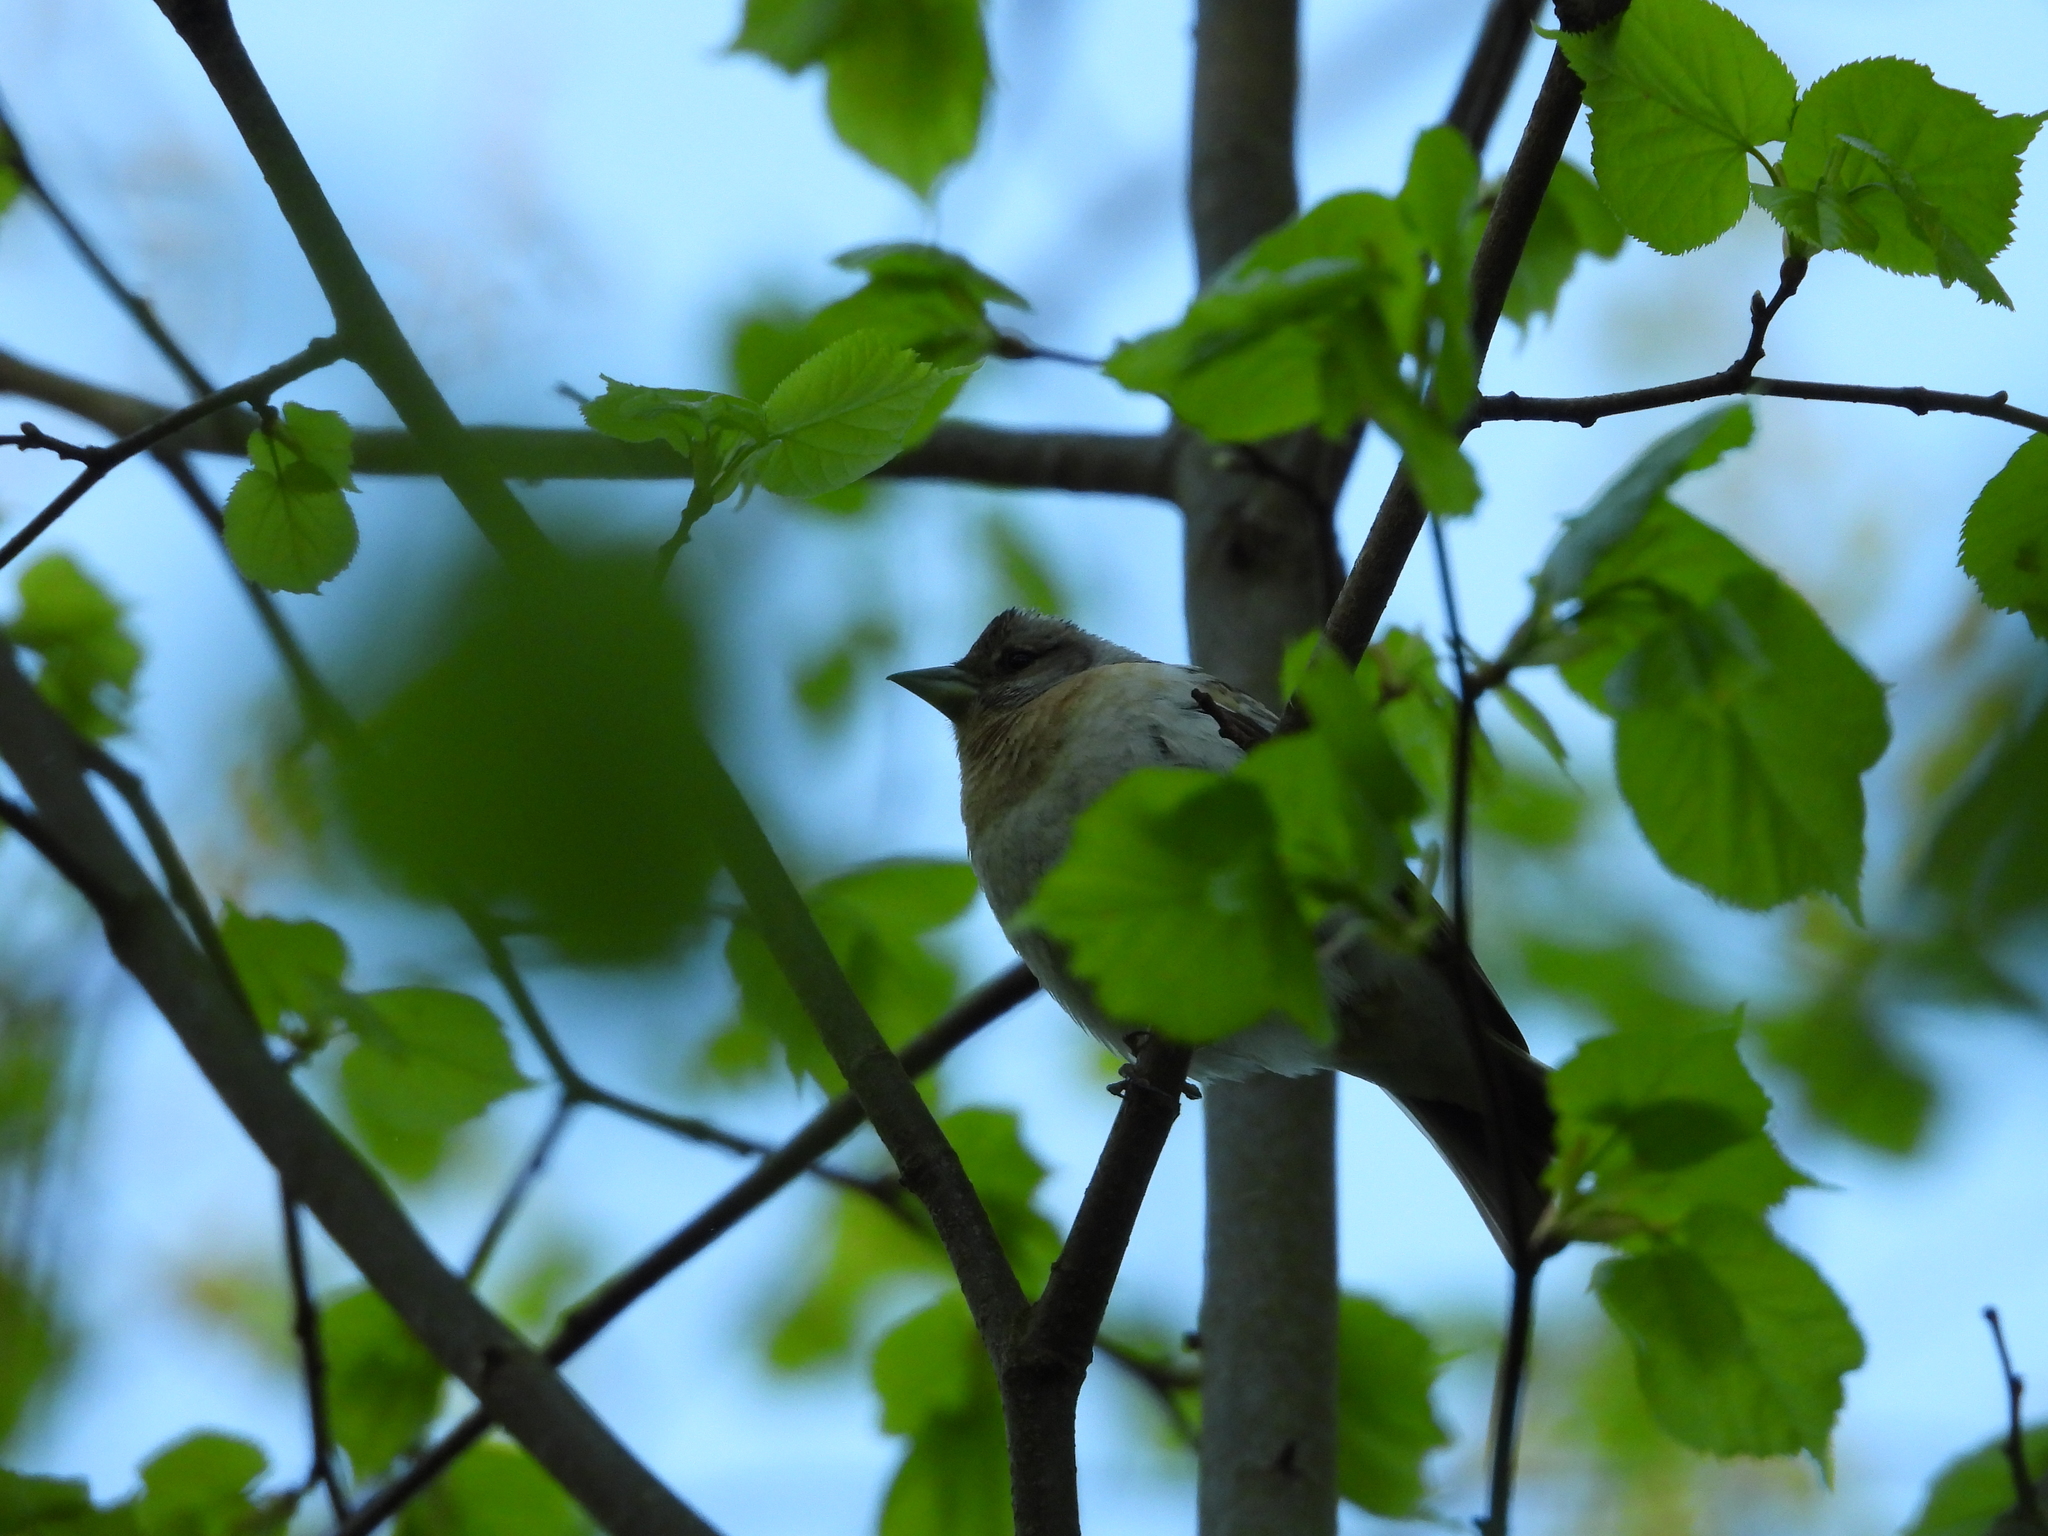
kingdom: Animalia
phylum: Chordata
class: Aves
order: Passeriformes
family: Fringillidae
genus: Fringilla
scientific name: Fringilla coelebs
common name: Common chaffinch
